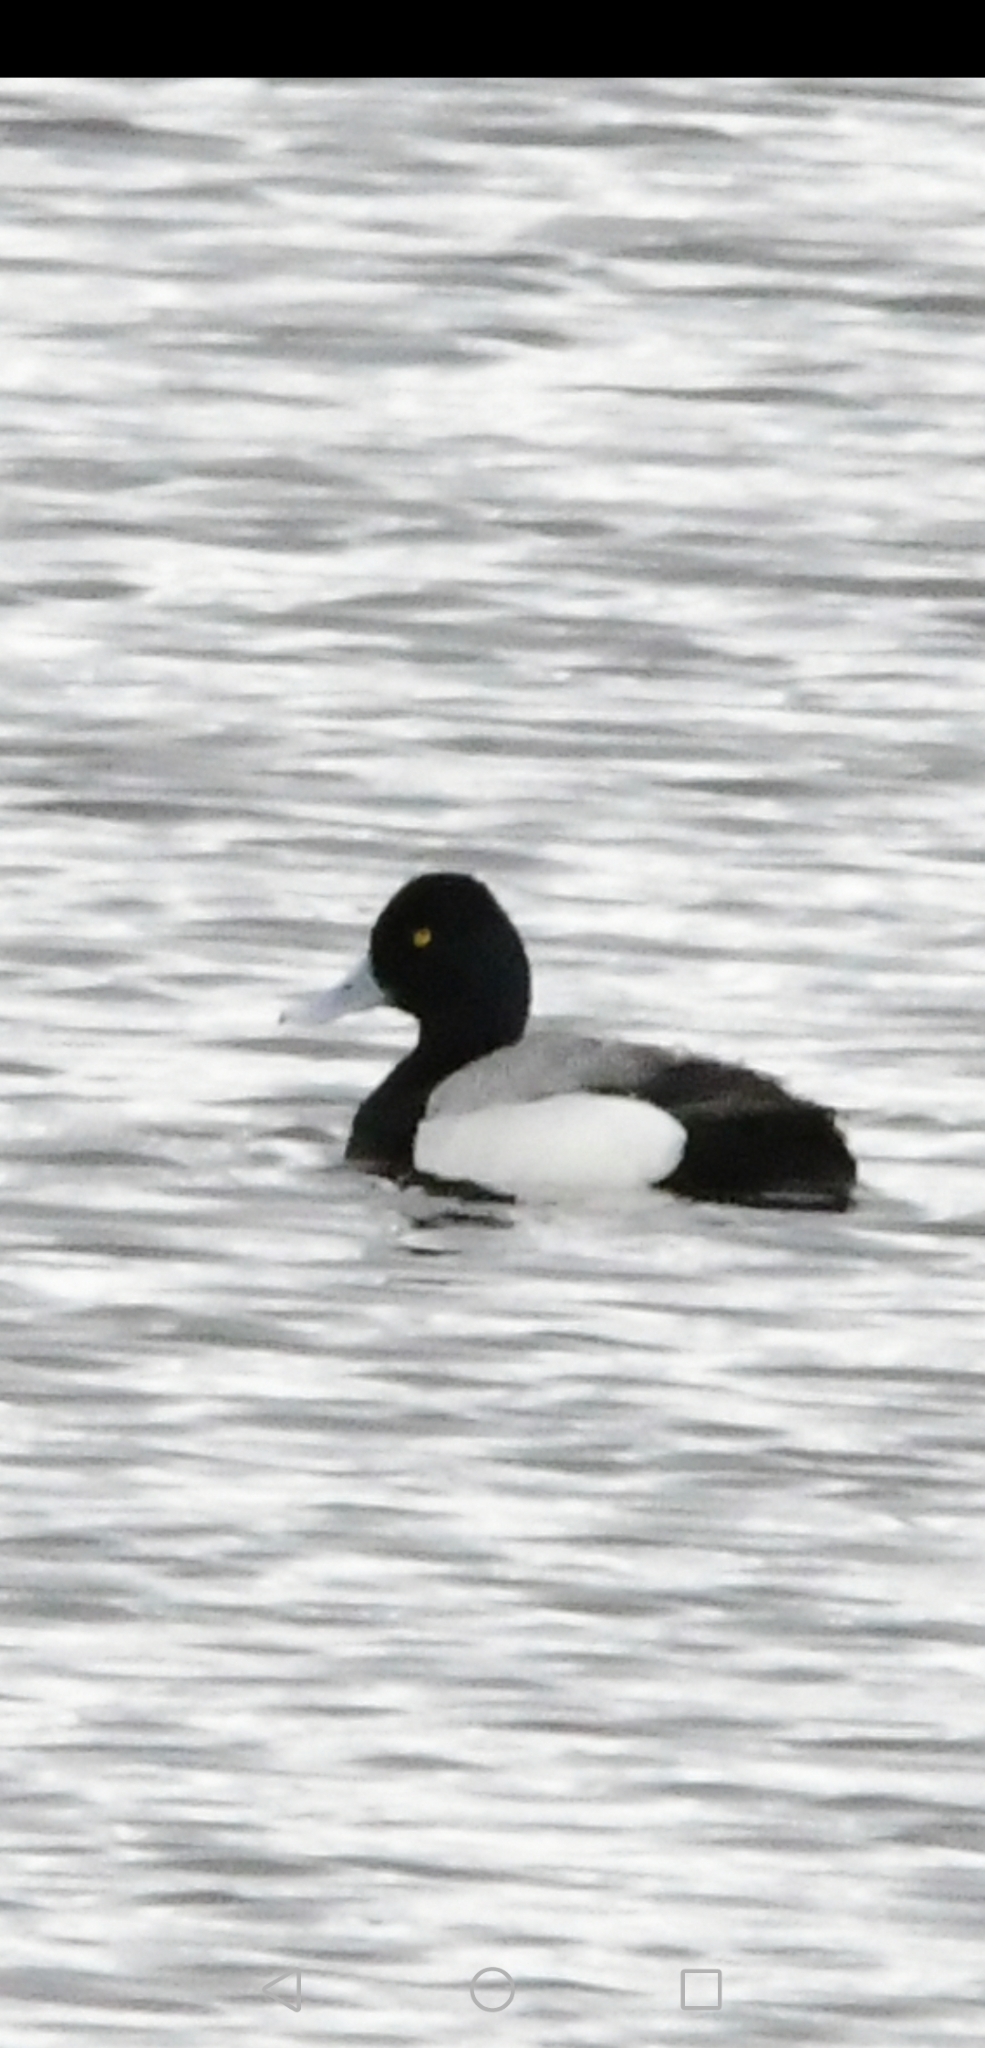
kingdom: Animalia
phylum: Chordata
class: Aves
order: Anseriformes
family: Anatidae
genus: Aythya
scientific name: Aythya affinis
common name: Lesser scaup
